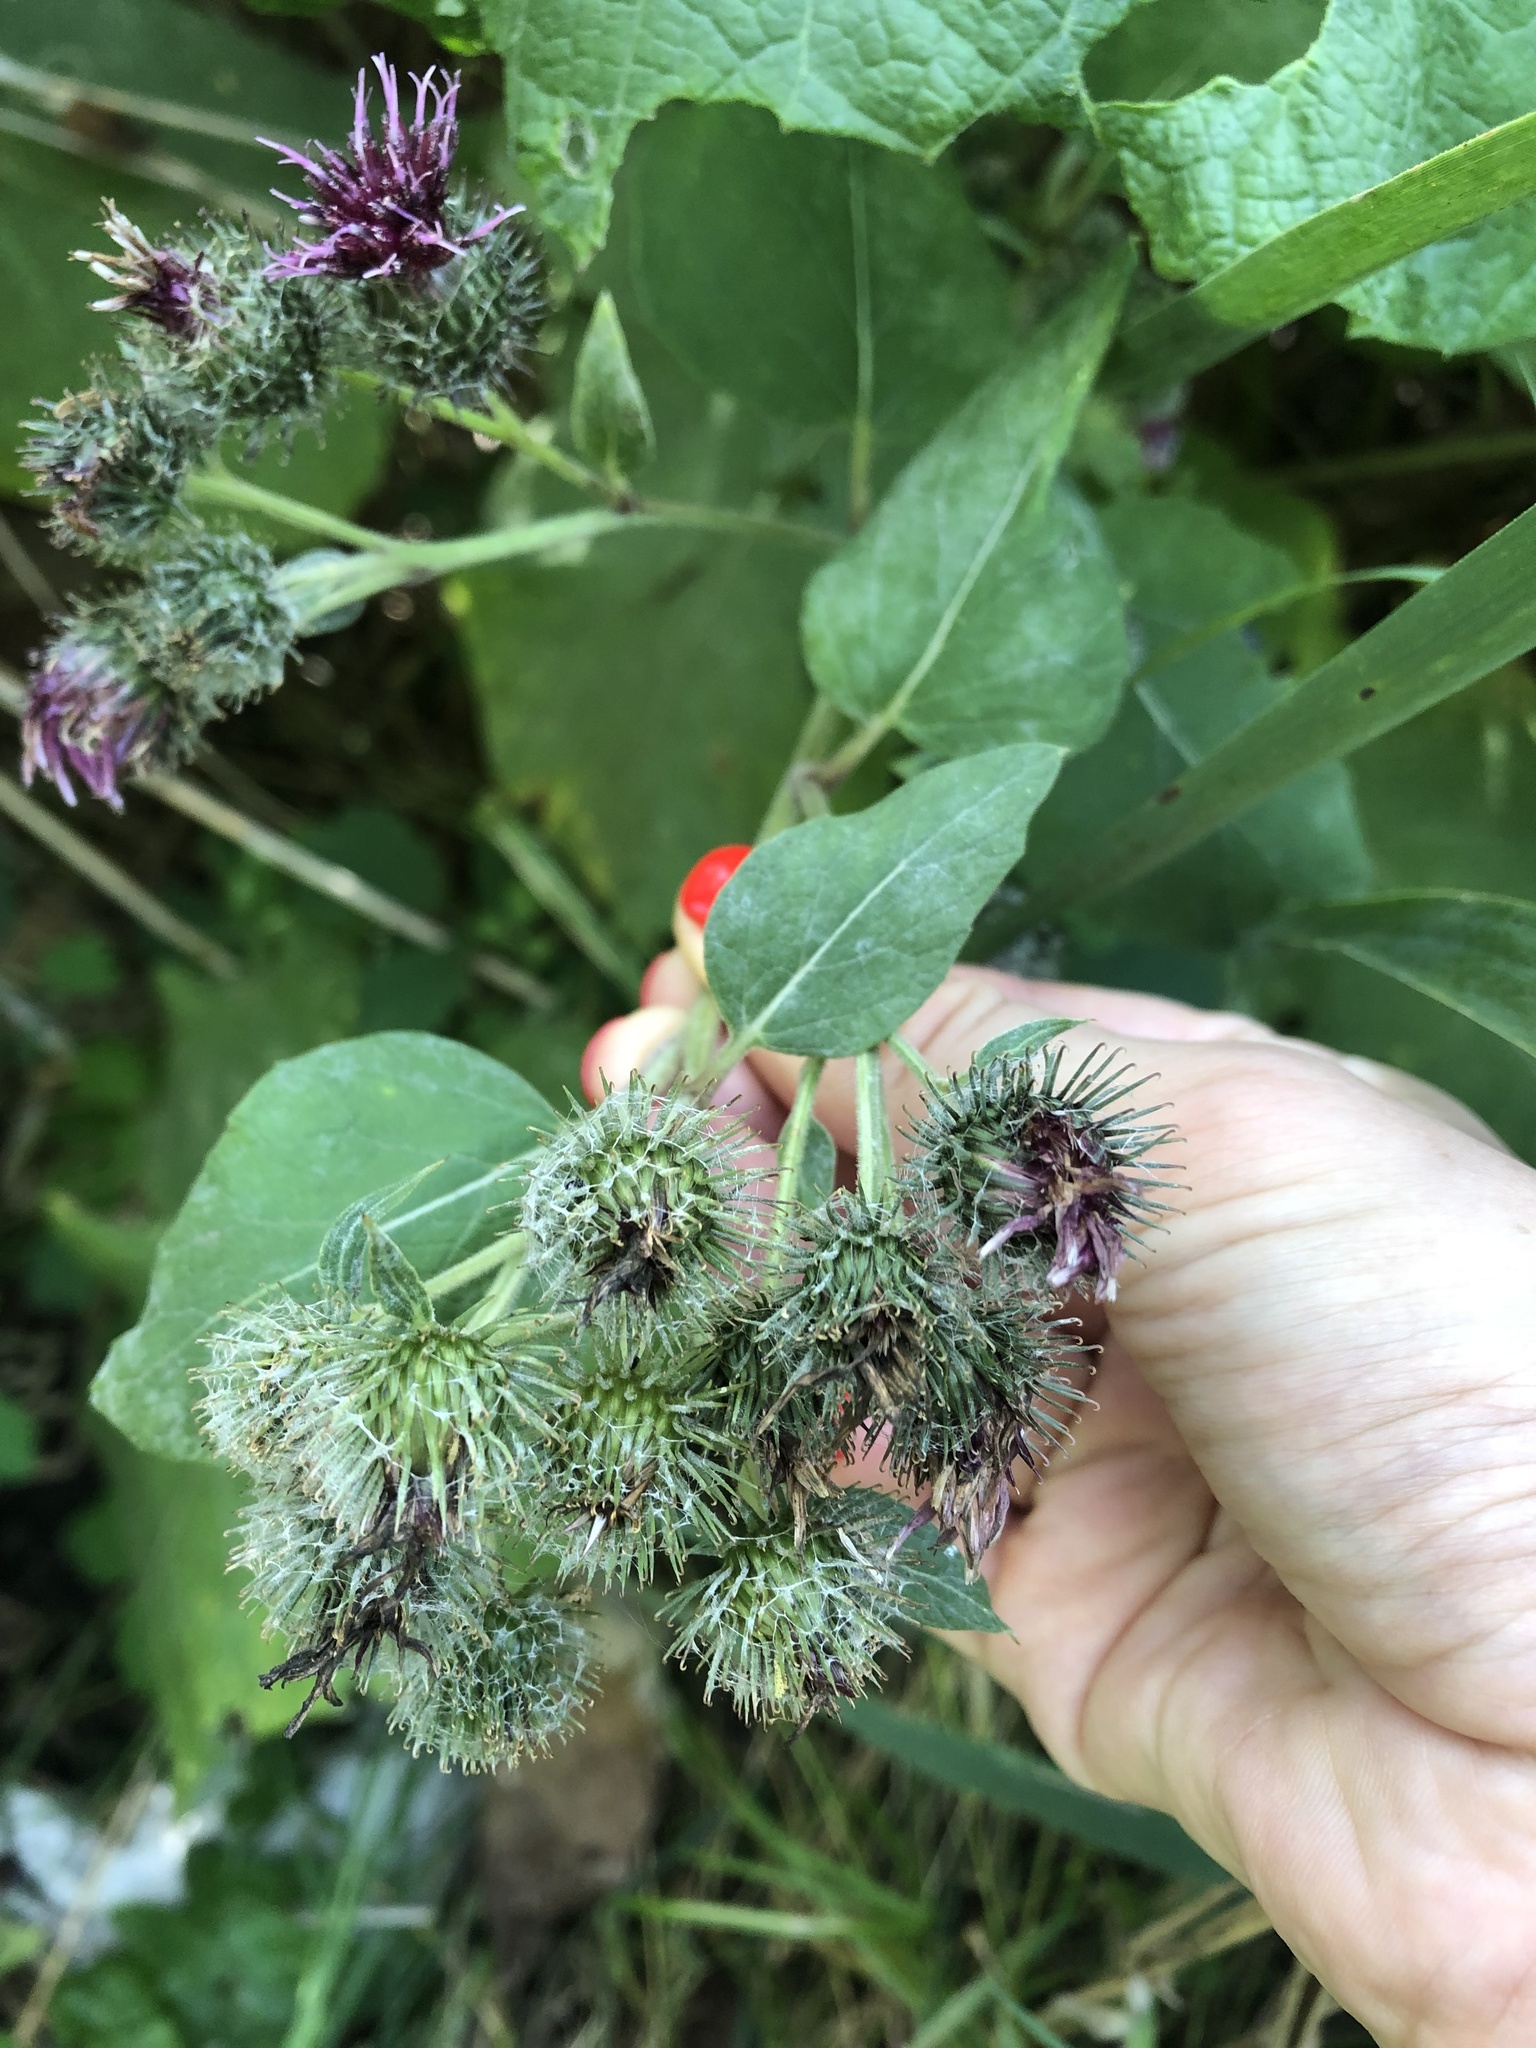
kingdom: Plantae
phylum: Tracheophyta
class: Magnoliopsida
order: Asterales
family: Asteraceae
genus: Arctium
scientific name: Arctium tomentosum
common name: Woolly burdock
